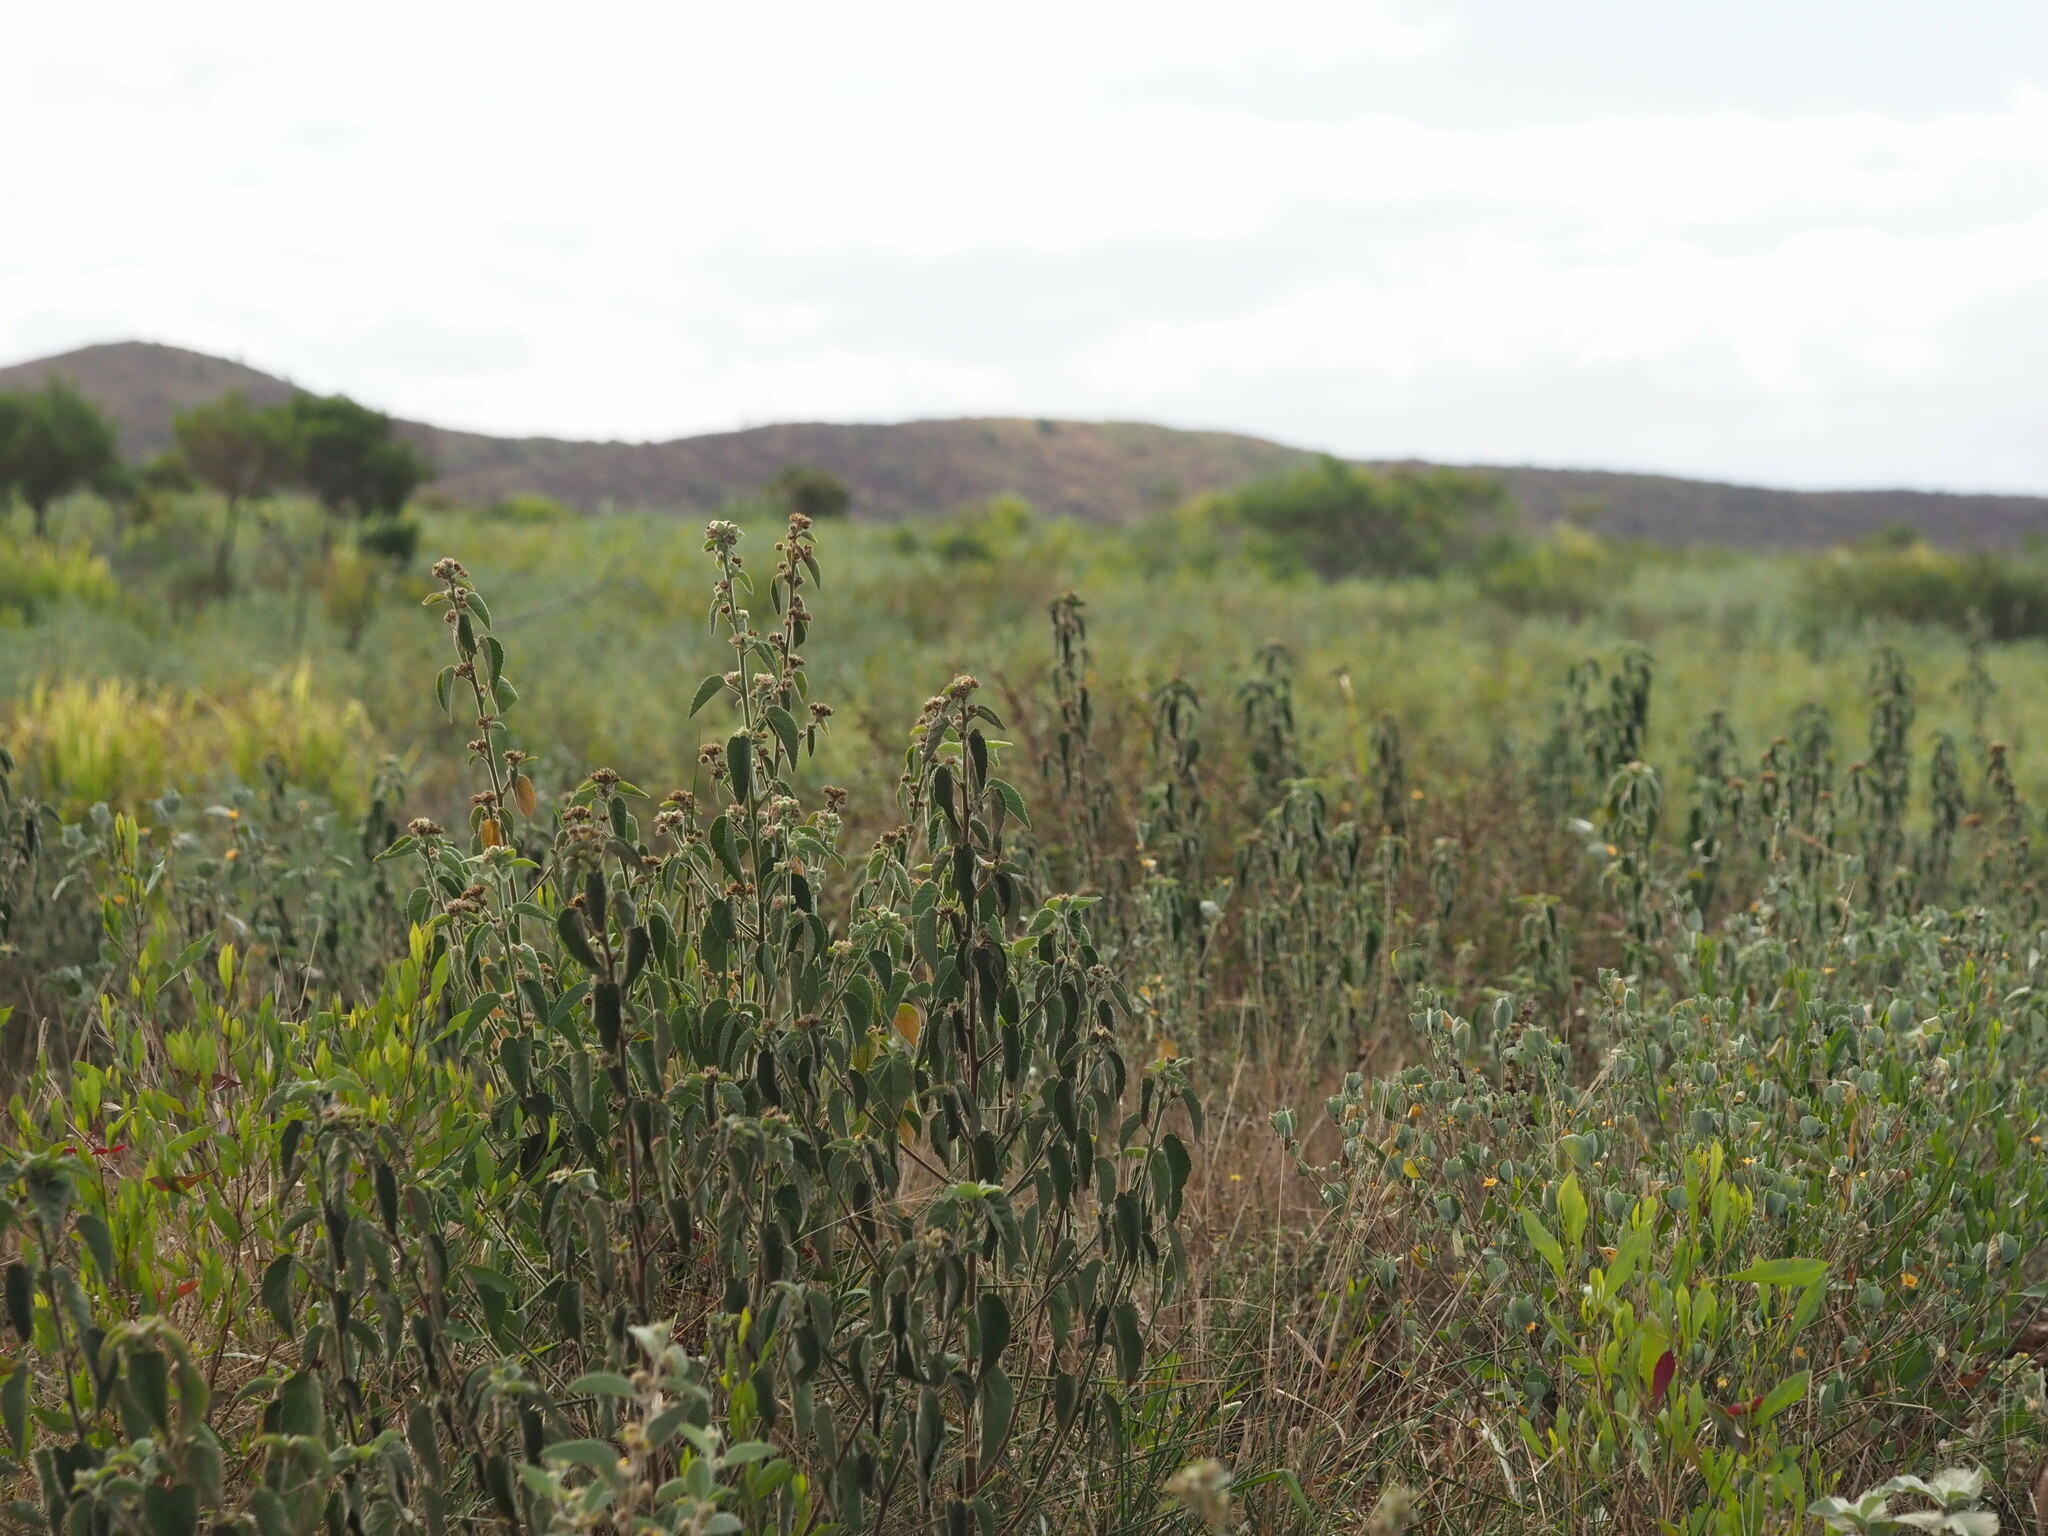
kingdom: Plantae
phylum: Tracheophyta
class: Magnoliopsida
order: Malvales
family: Malvaceae
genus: Sida
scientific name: Sida cordifolia
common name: Ilima
